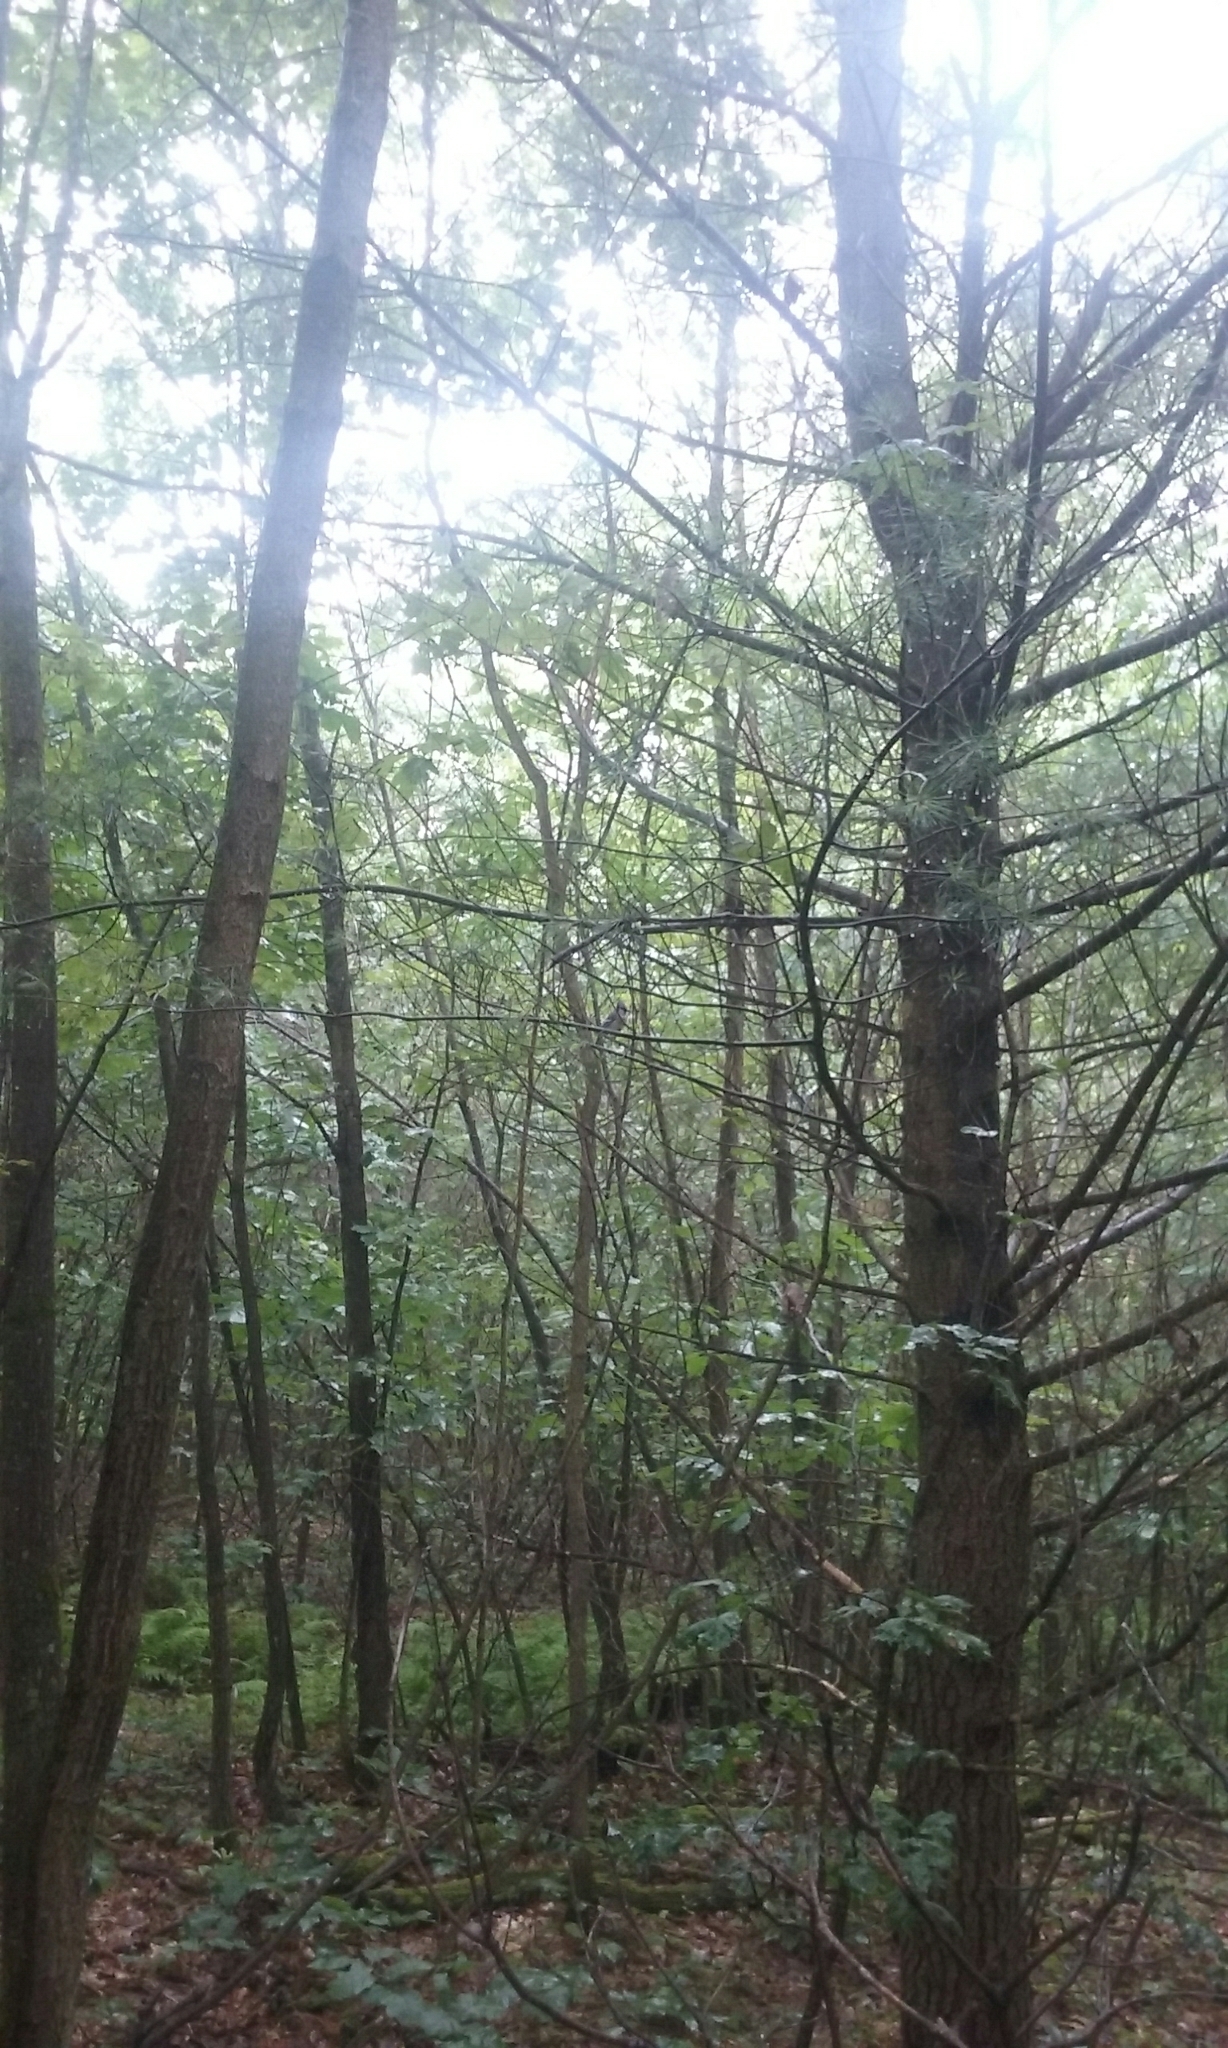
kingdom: Animalia
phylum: Chordata
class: Aves
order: Passeriformes
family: Corvidae
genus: Cyanocitta
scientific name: Cyanocitta cristata
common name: Blue jay
